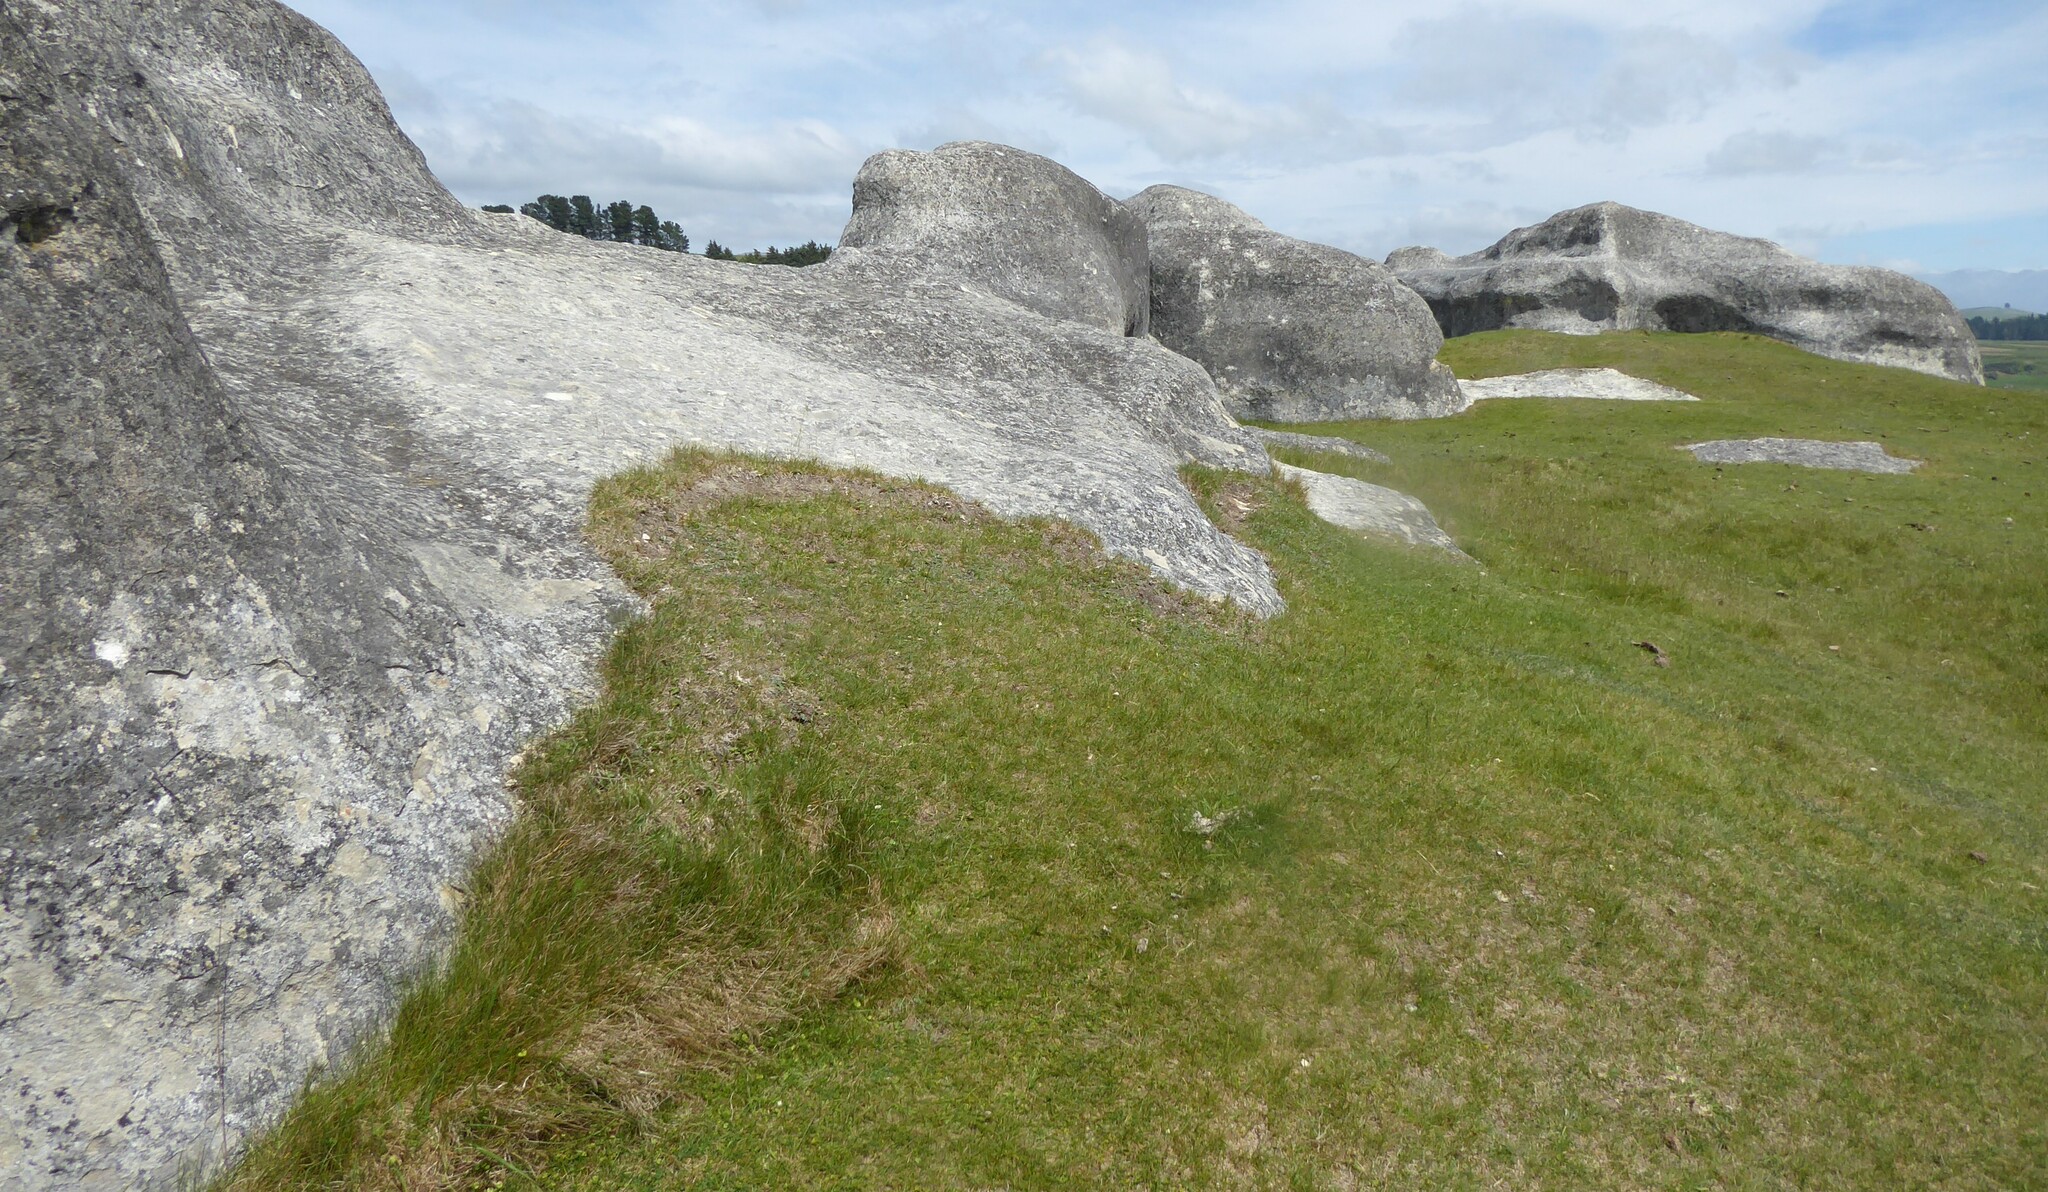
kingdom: Plantae
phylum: Tracheophyta
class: Magnoliopsida
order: Geraniales
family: Geraniaceae
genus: Geranium
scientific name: Geranium socolateum
